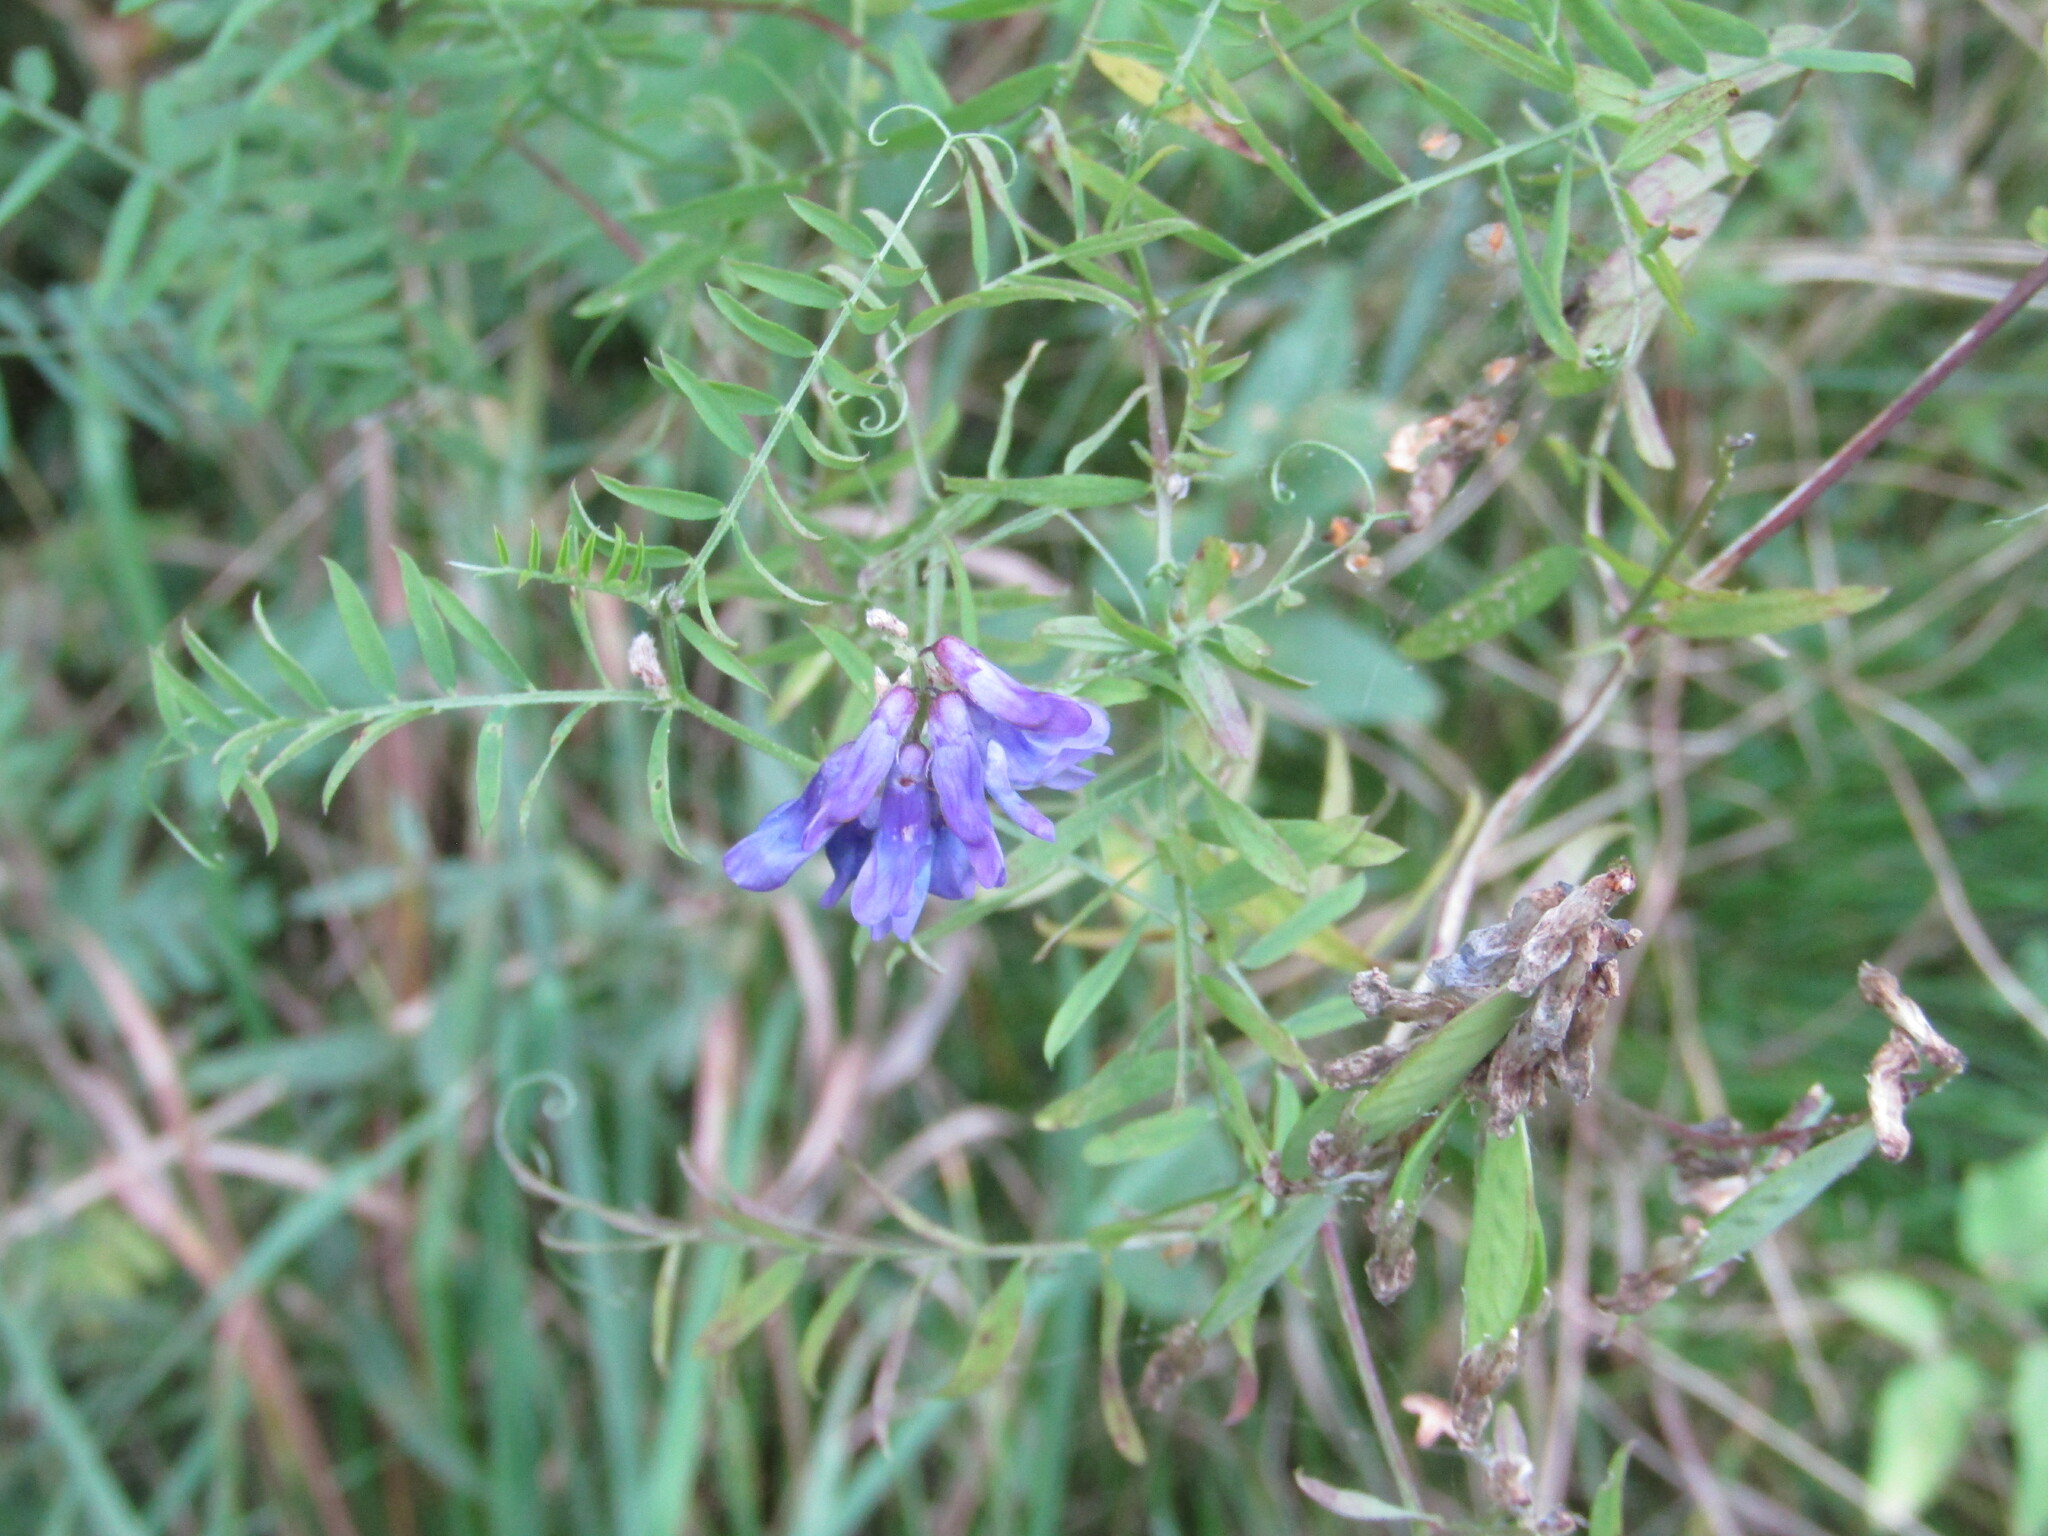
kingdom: Plantae
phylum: Tracheophyta
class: Magnoliopsida
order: Fabales
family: Fabaceae
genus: Vicia
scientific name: Vicia cracca
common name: Bird vetch
